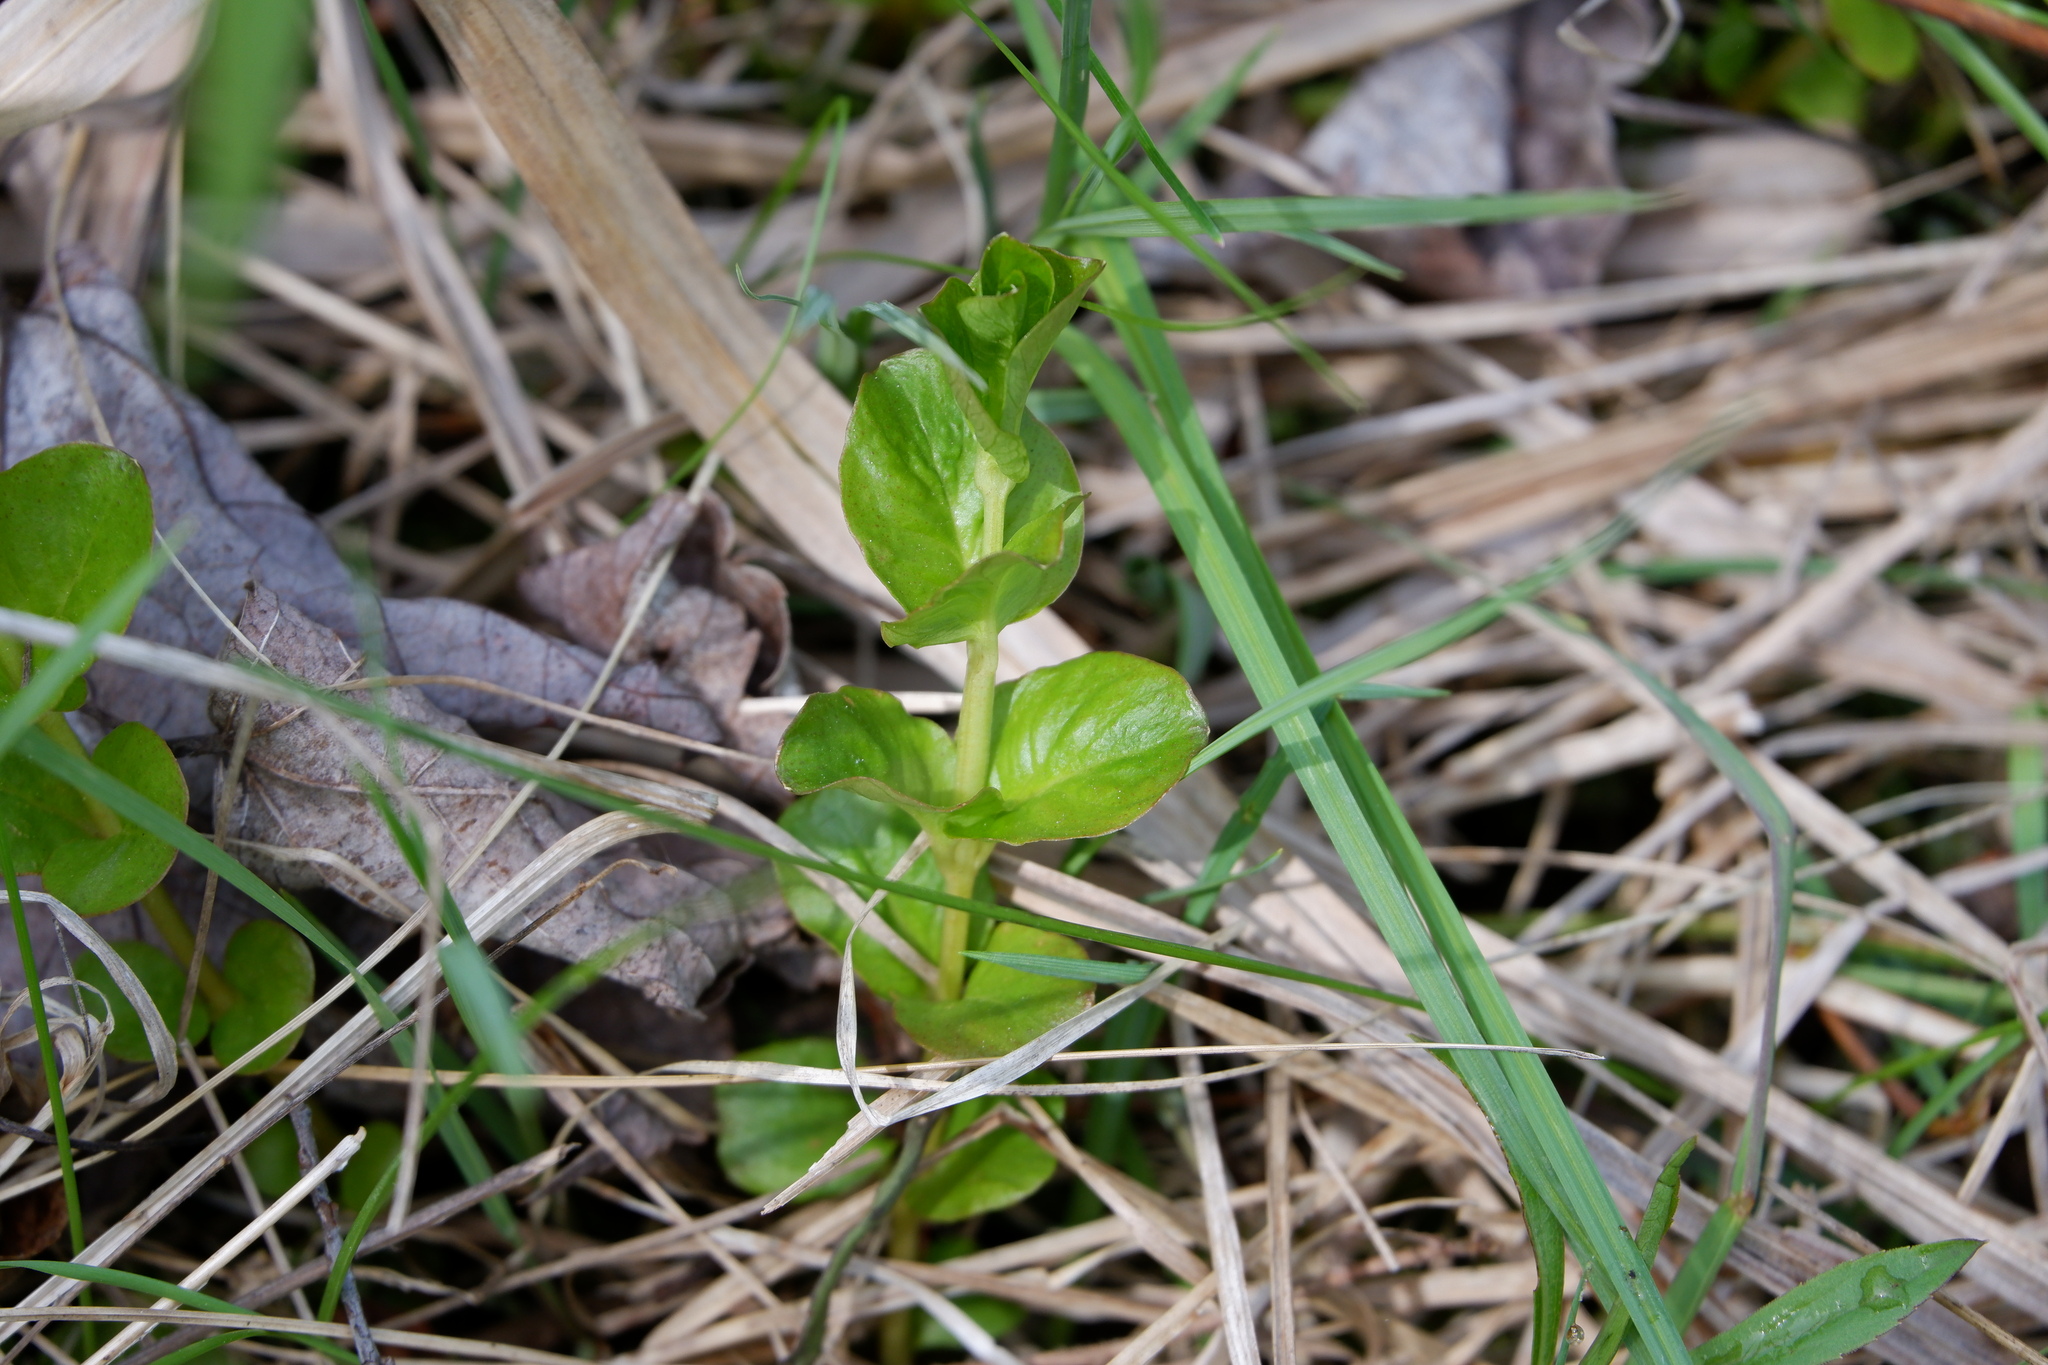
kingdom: Plantae
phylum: Tracheophyta
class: Magnoliopsida
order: Ericales
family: Primulaceae
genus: Lysimachia
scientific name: Lysimachia nummularia
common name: Moneywort
